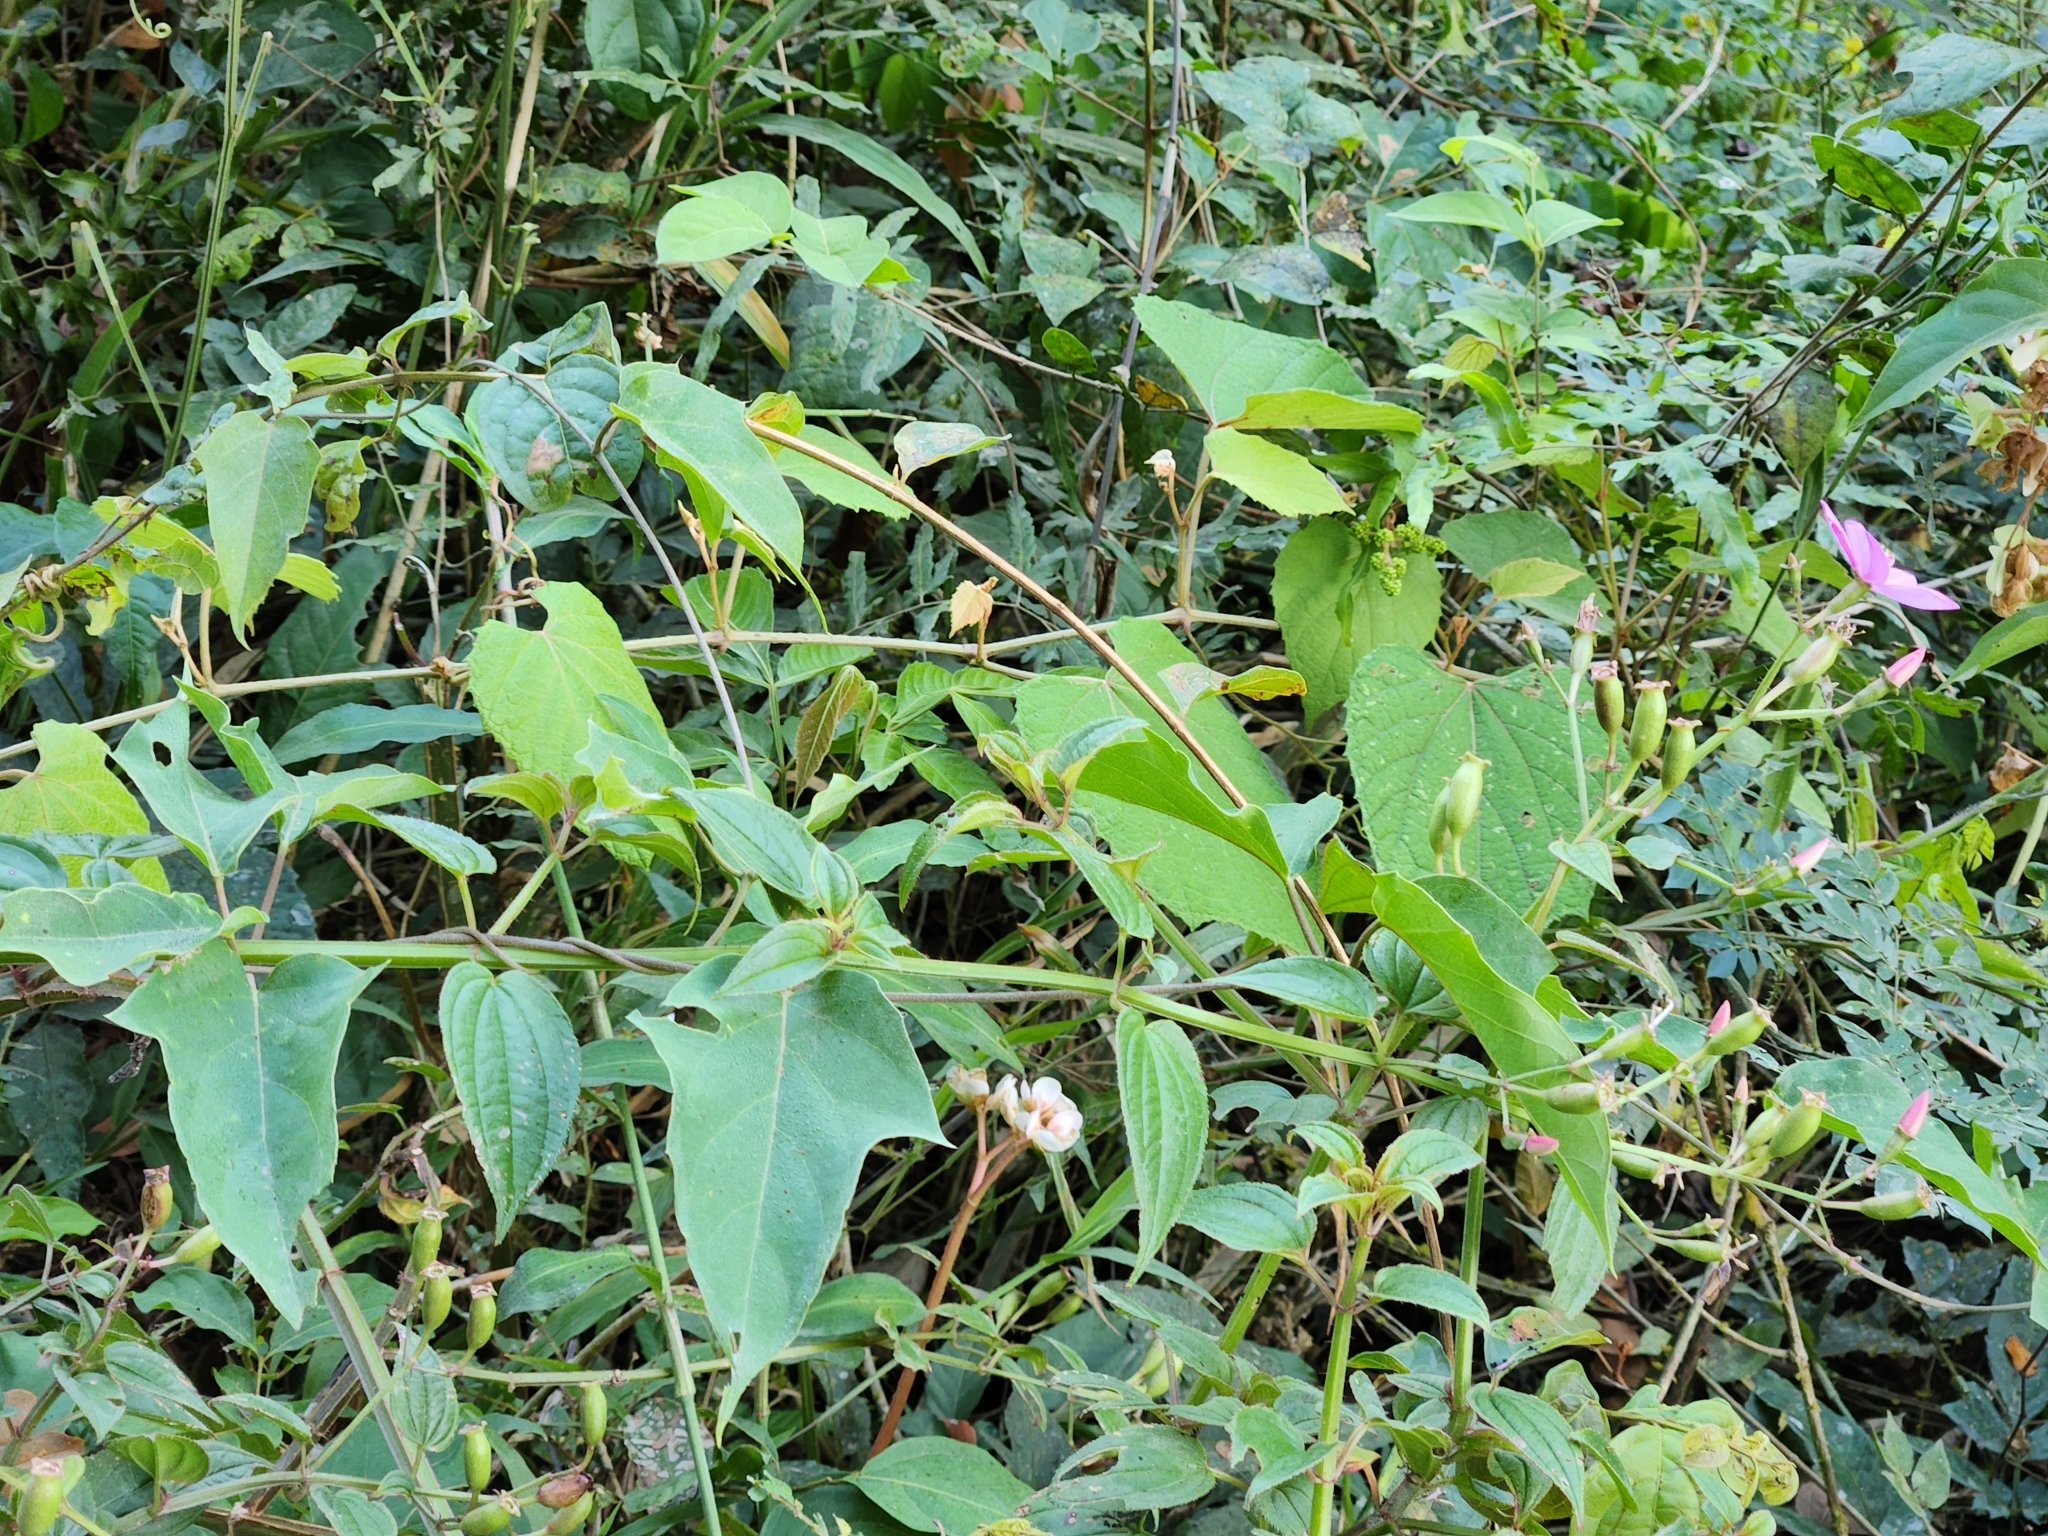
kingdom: Plantae
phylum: Tracheophyta
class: Magnoliopsida
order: Myrtales
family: Melastomataceae
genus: Arthrostemma
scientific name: Arthrostemma ciliatum
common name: Everblooming eavender
